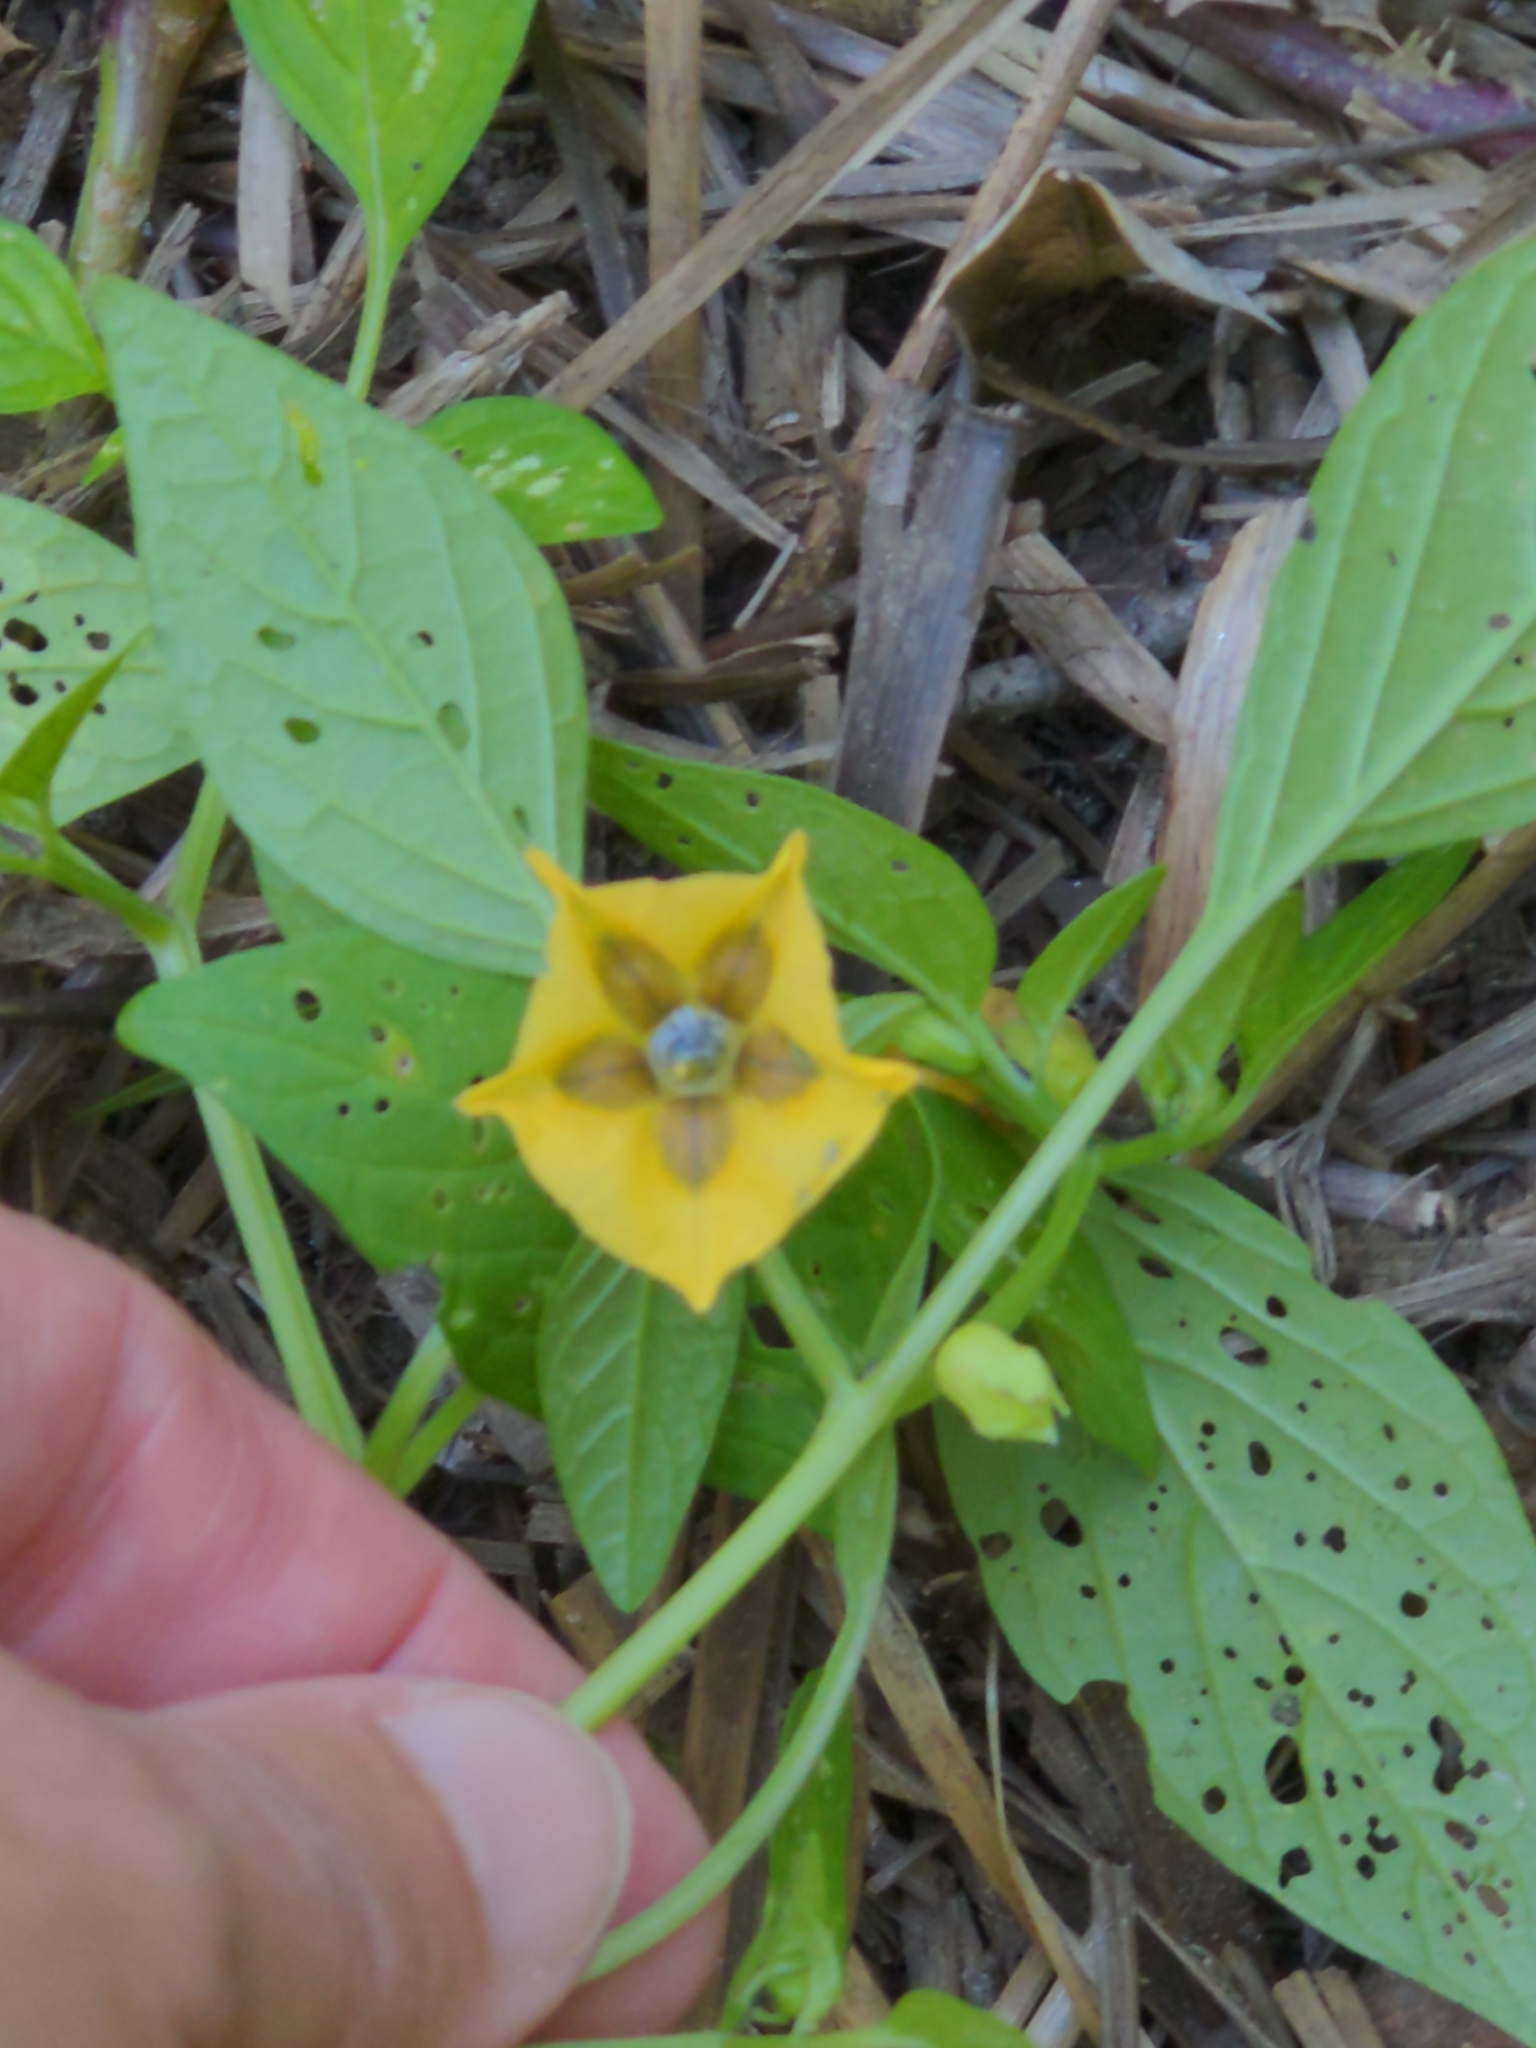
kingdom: Plantae
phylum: Tracheophyta
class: Magnoliopsida
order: Solanales
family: Solanaceae
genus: Physalis
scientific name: Physalis philadelphica
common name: Husk-tomato
